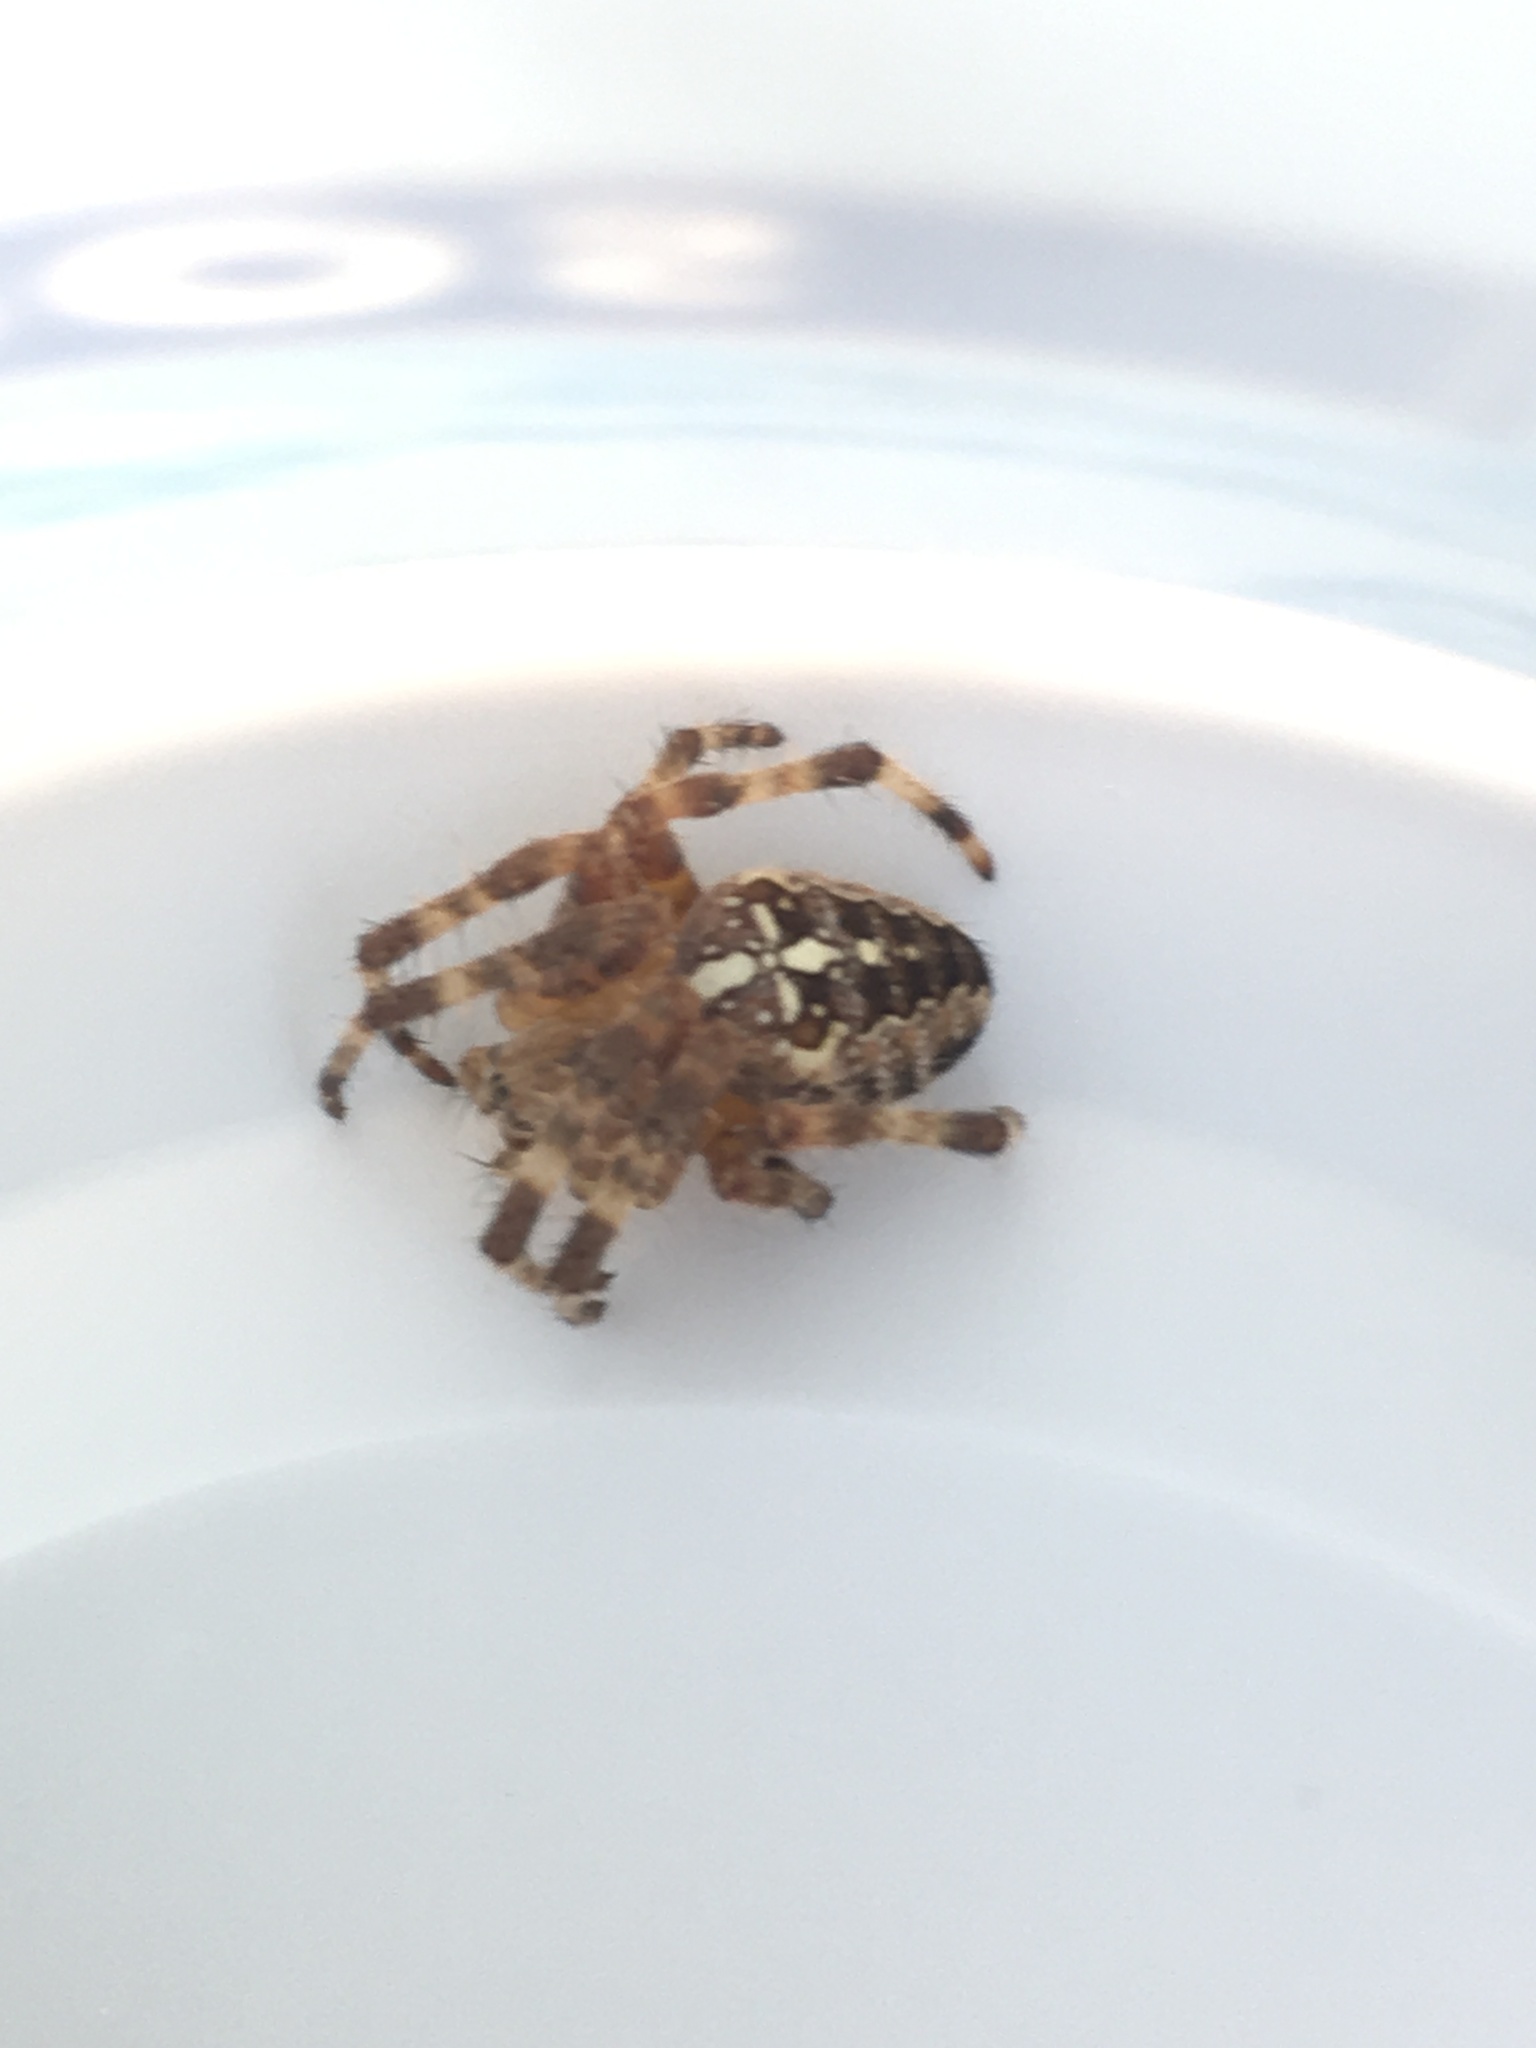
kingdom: Animalia
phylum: Arthropoda
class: Arachnida
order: Araneae
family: Araneidae
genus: Araneus
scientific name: Araneus diadematus
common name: Cross orbweaver
